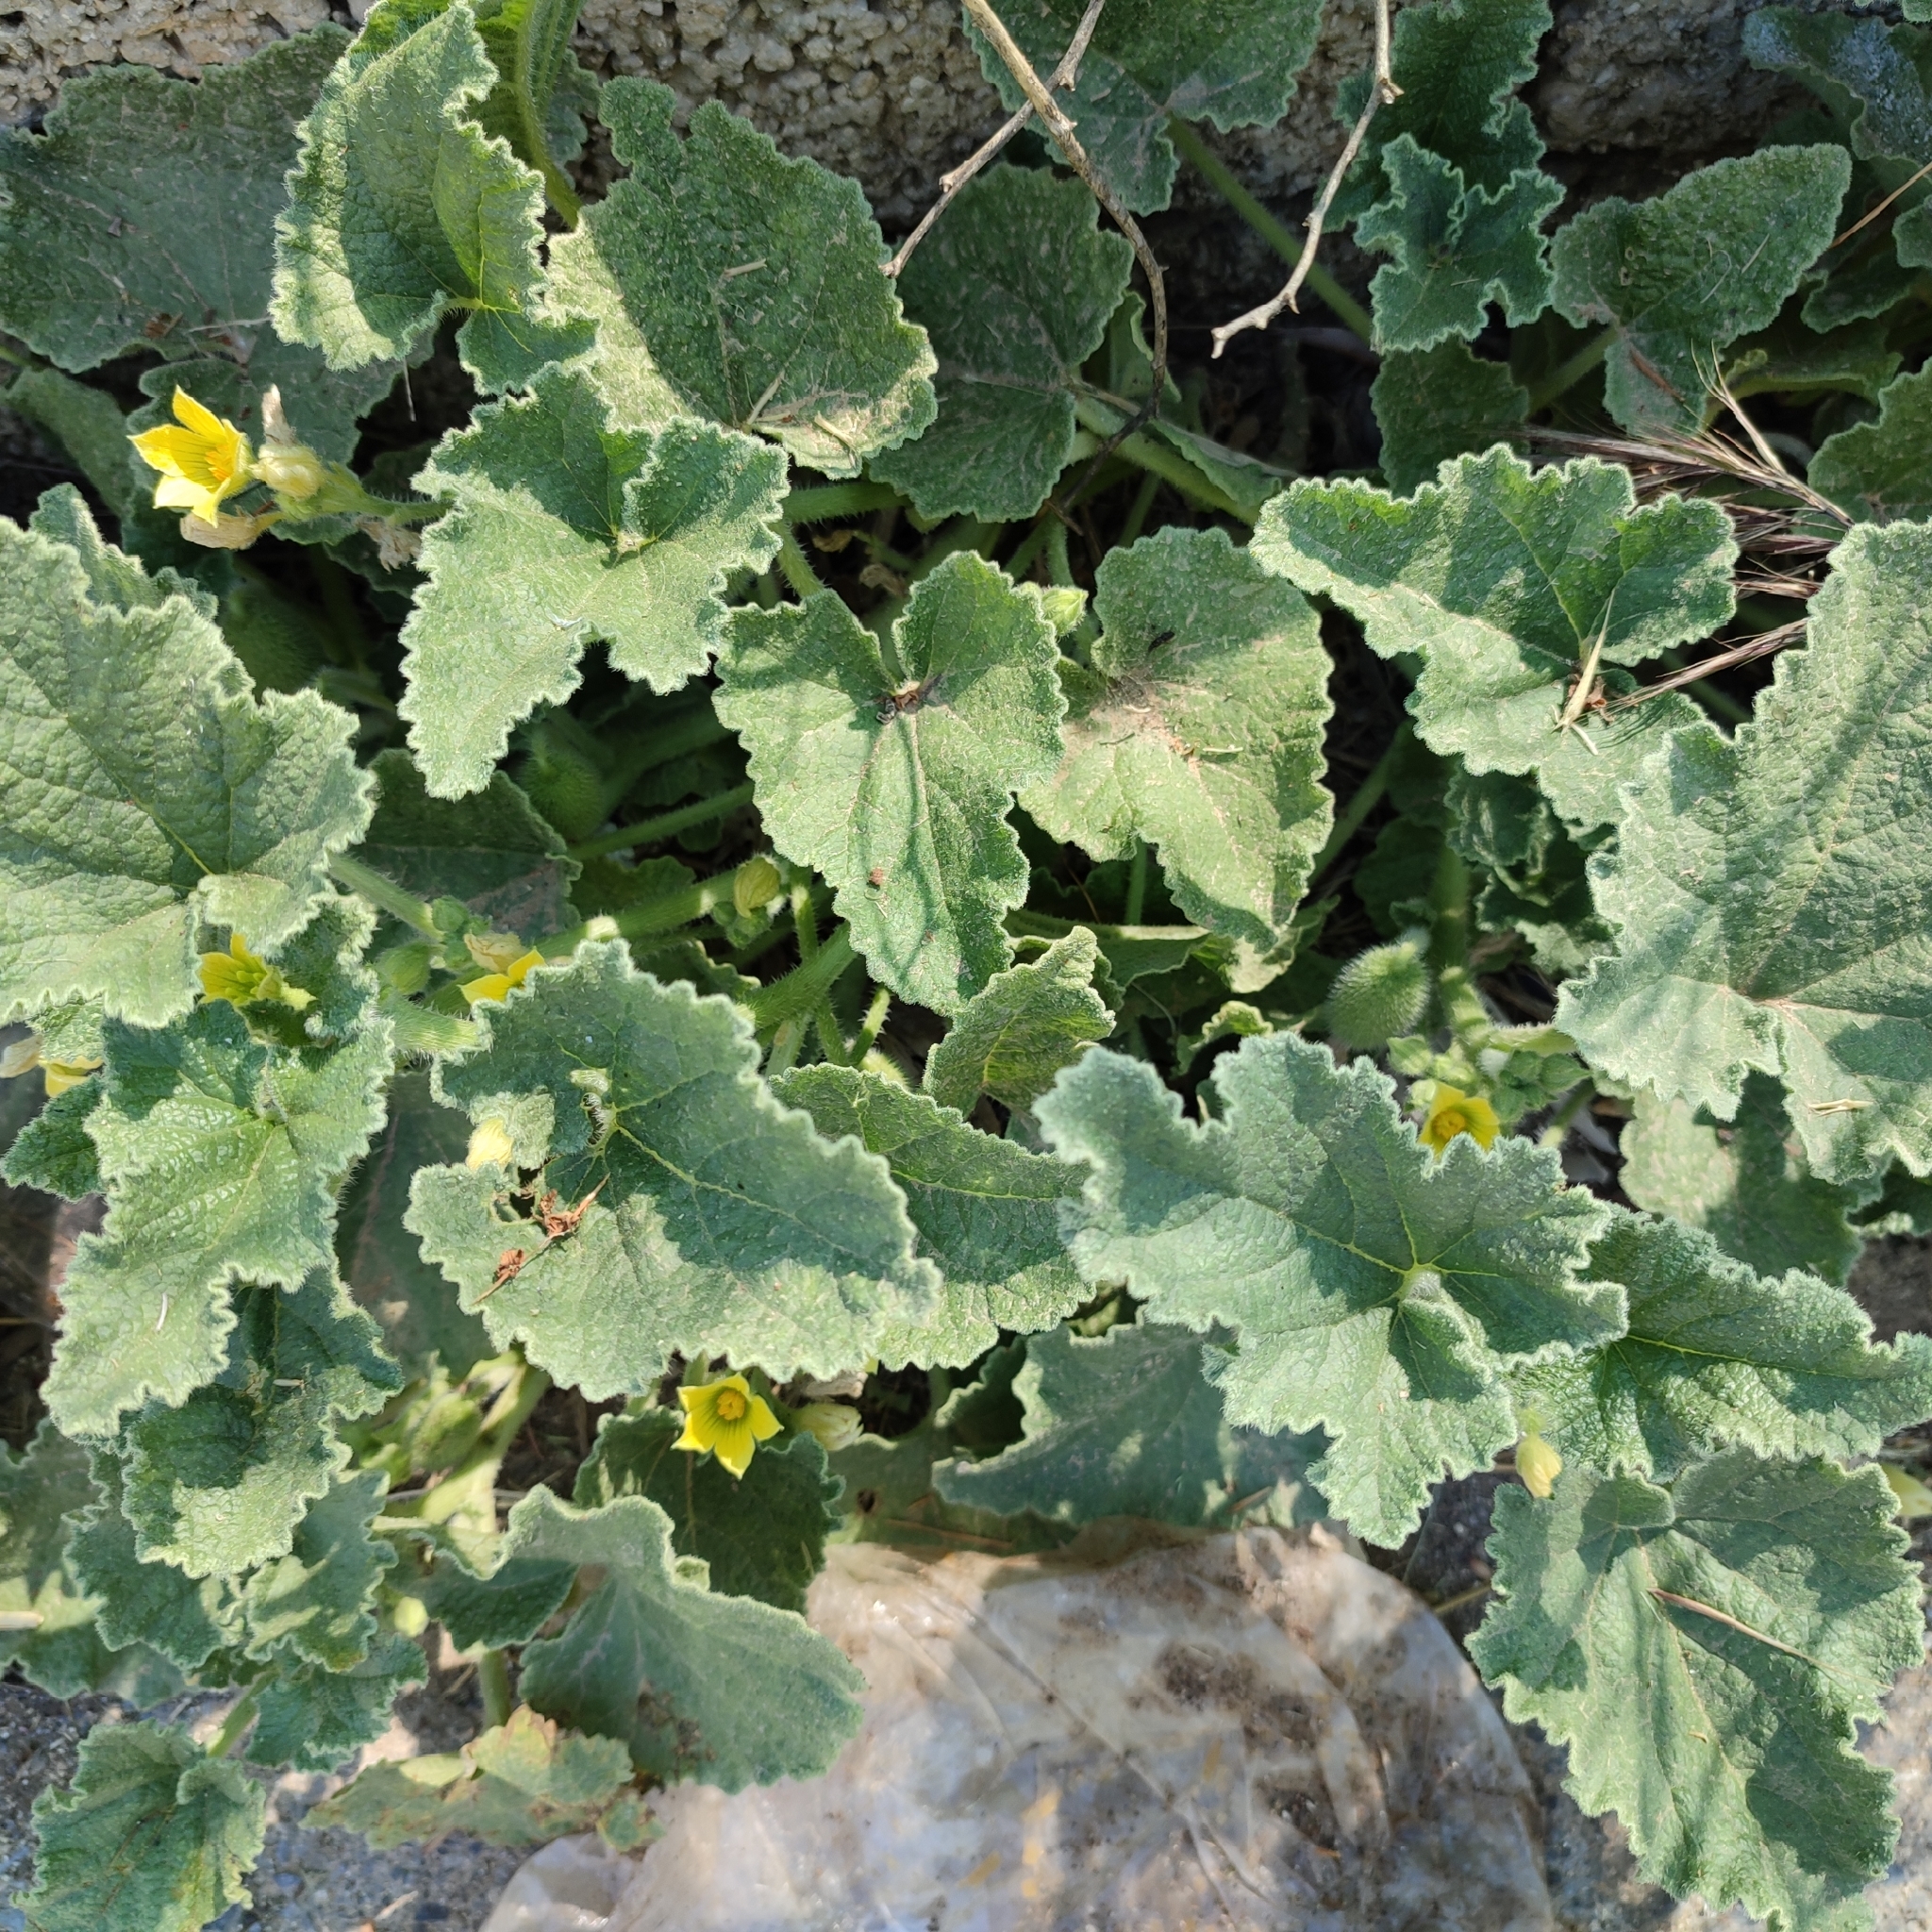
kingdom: Plantae
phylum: Tracheophyta
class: Magnoliopsida
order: Cucurbitales
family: Cucurbitaceae
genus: Ecballium
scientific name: Ecballium elaterium
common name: Squirting cucumber
